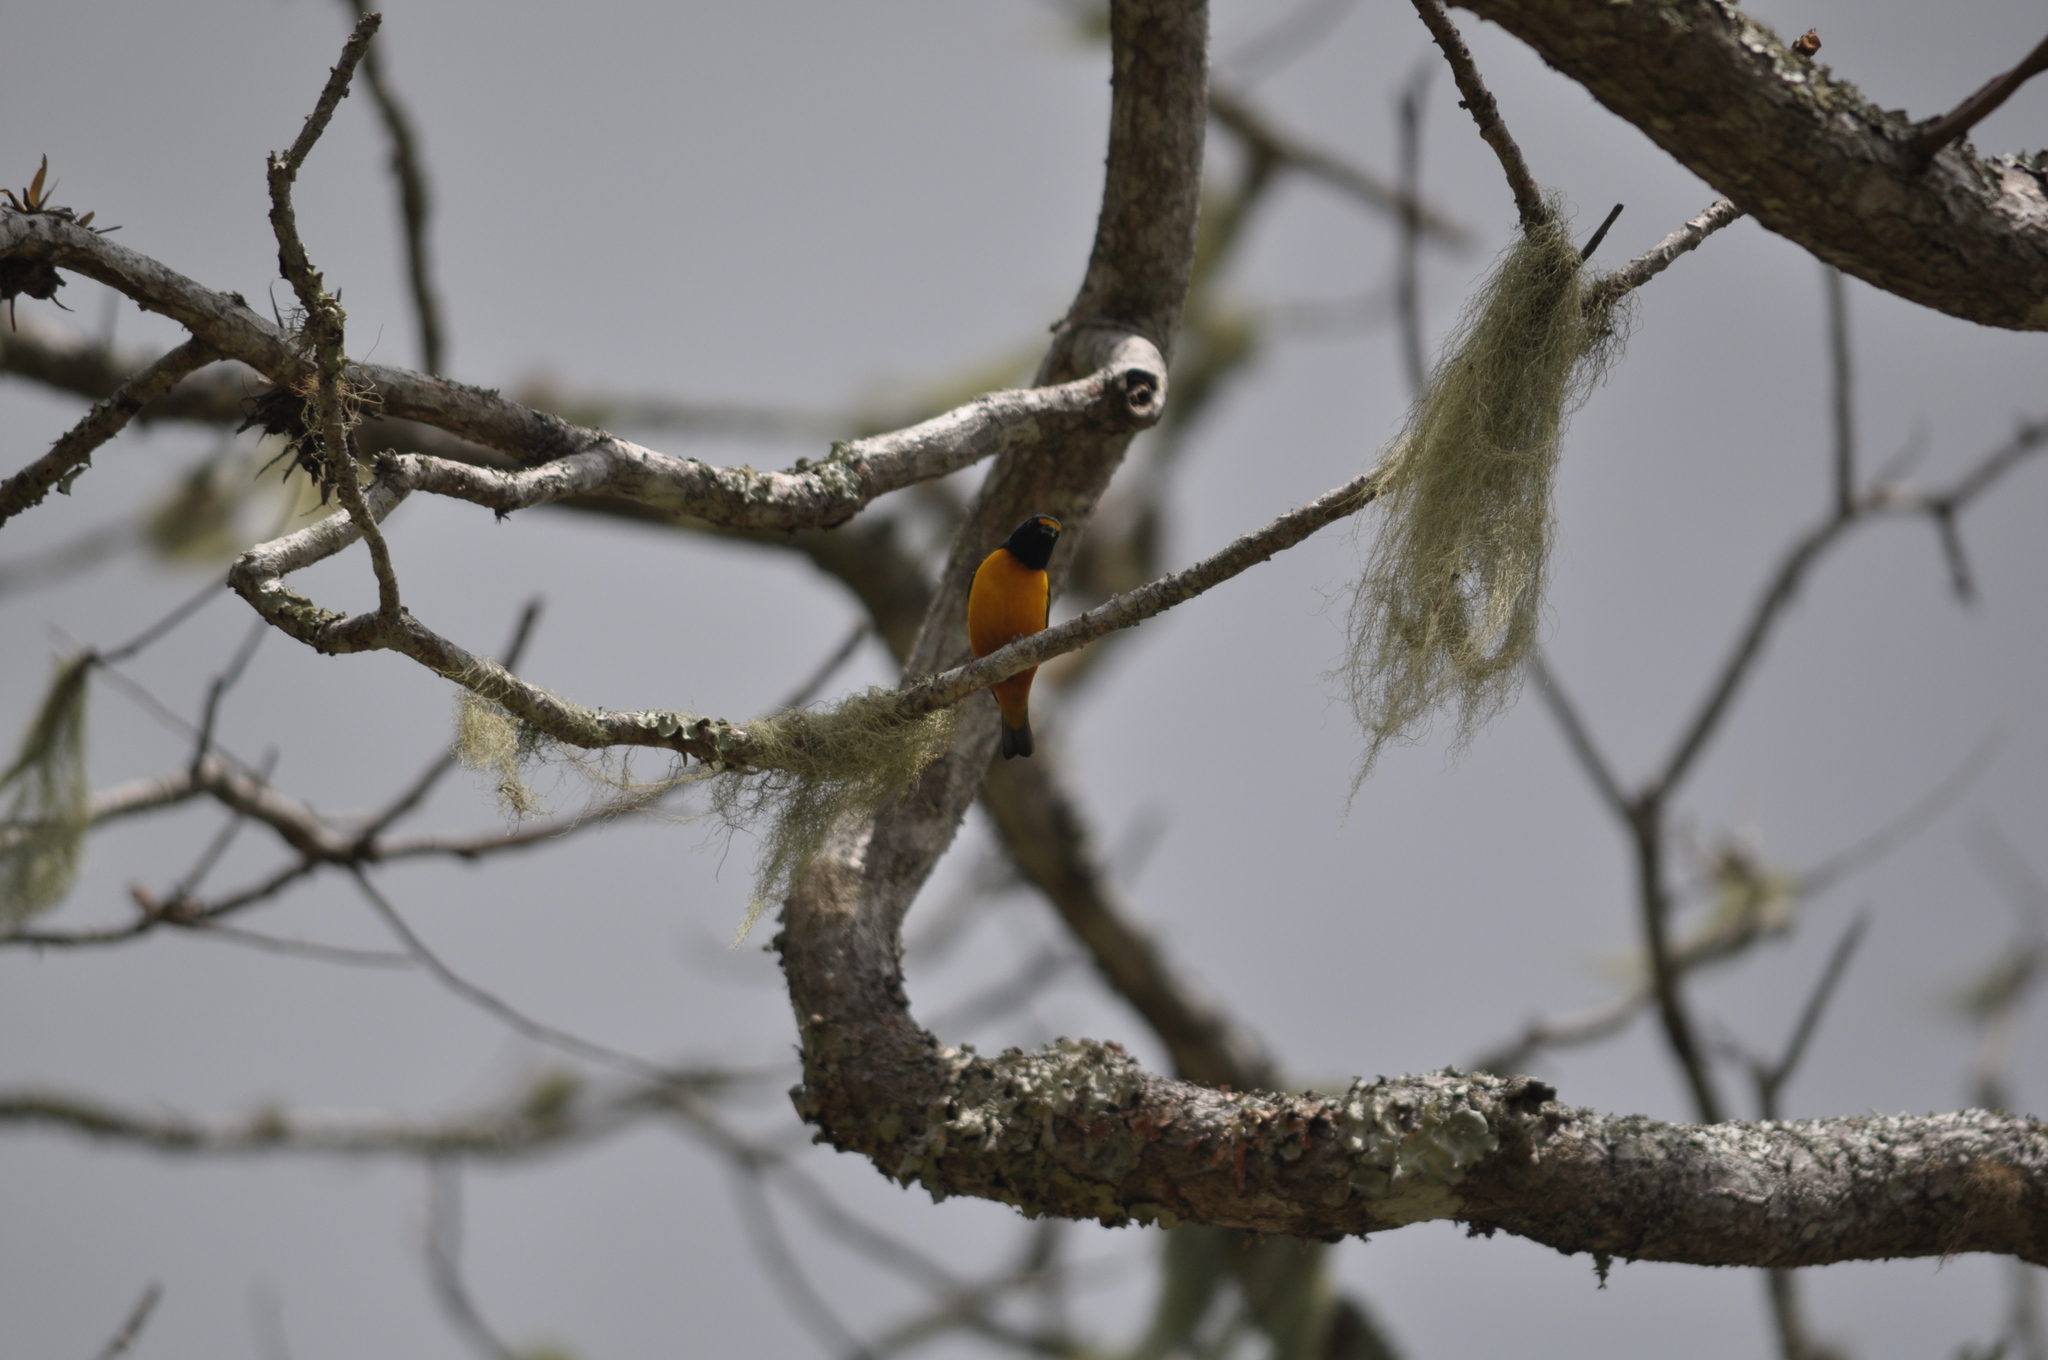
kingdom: Animalia
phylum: Chordata
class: Aves
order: Passeriformes
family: Fringillidae
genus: Euphonia
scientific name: Euphonia musica
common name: Antillean euphonia
